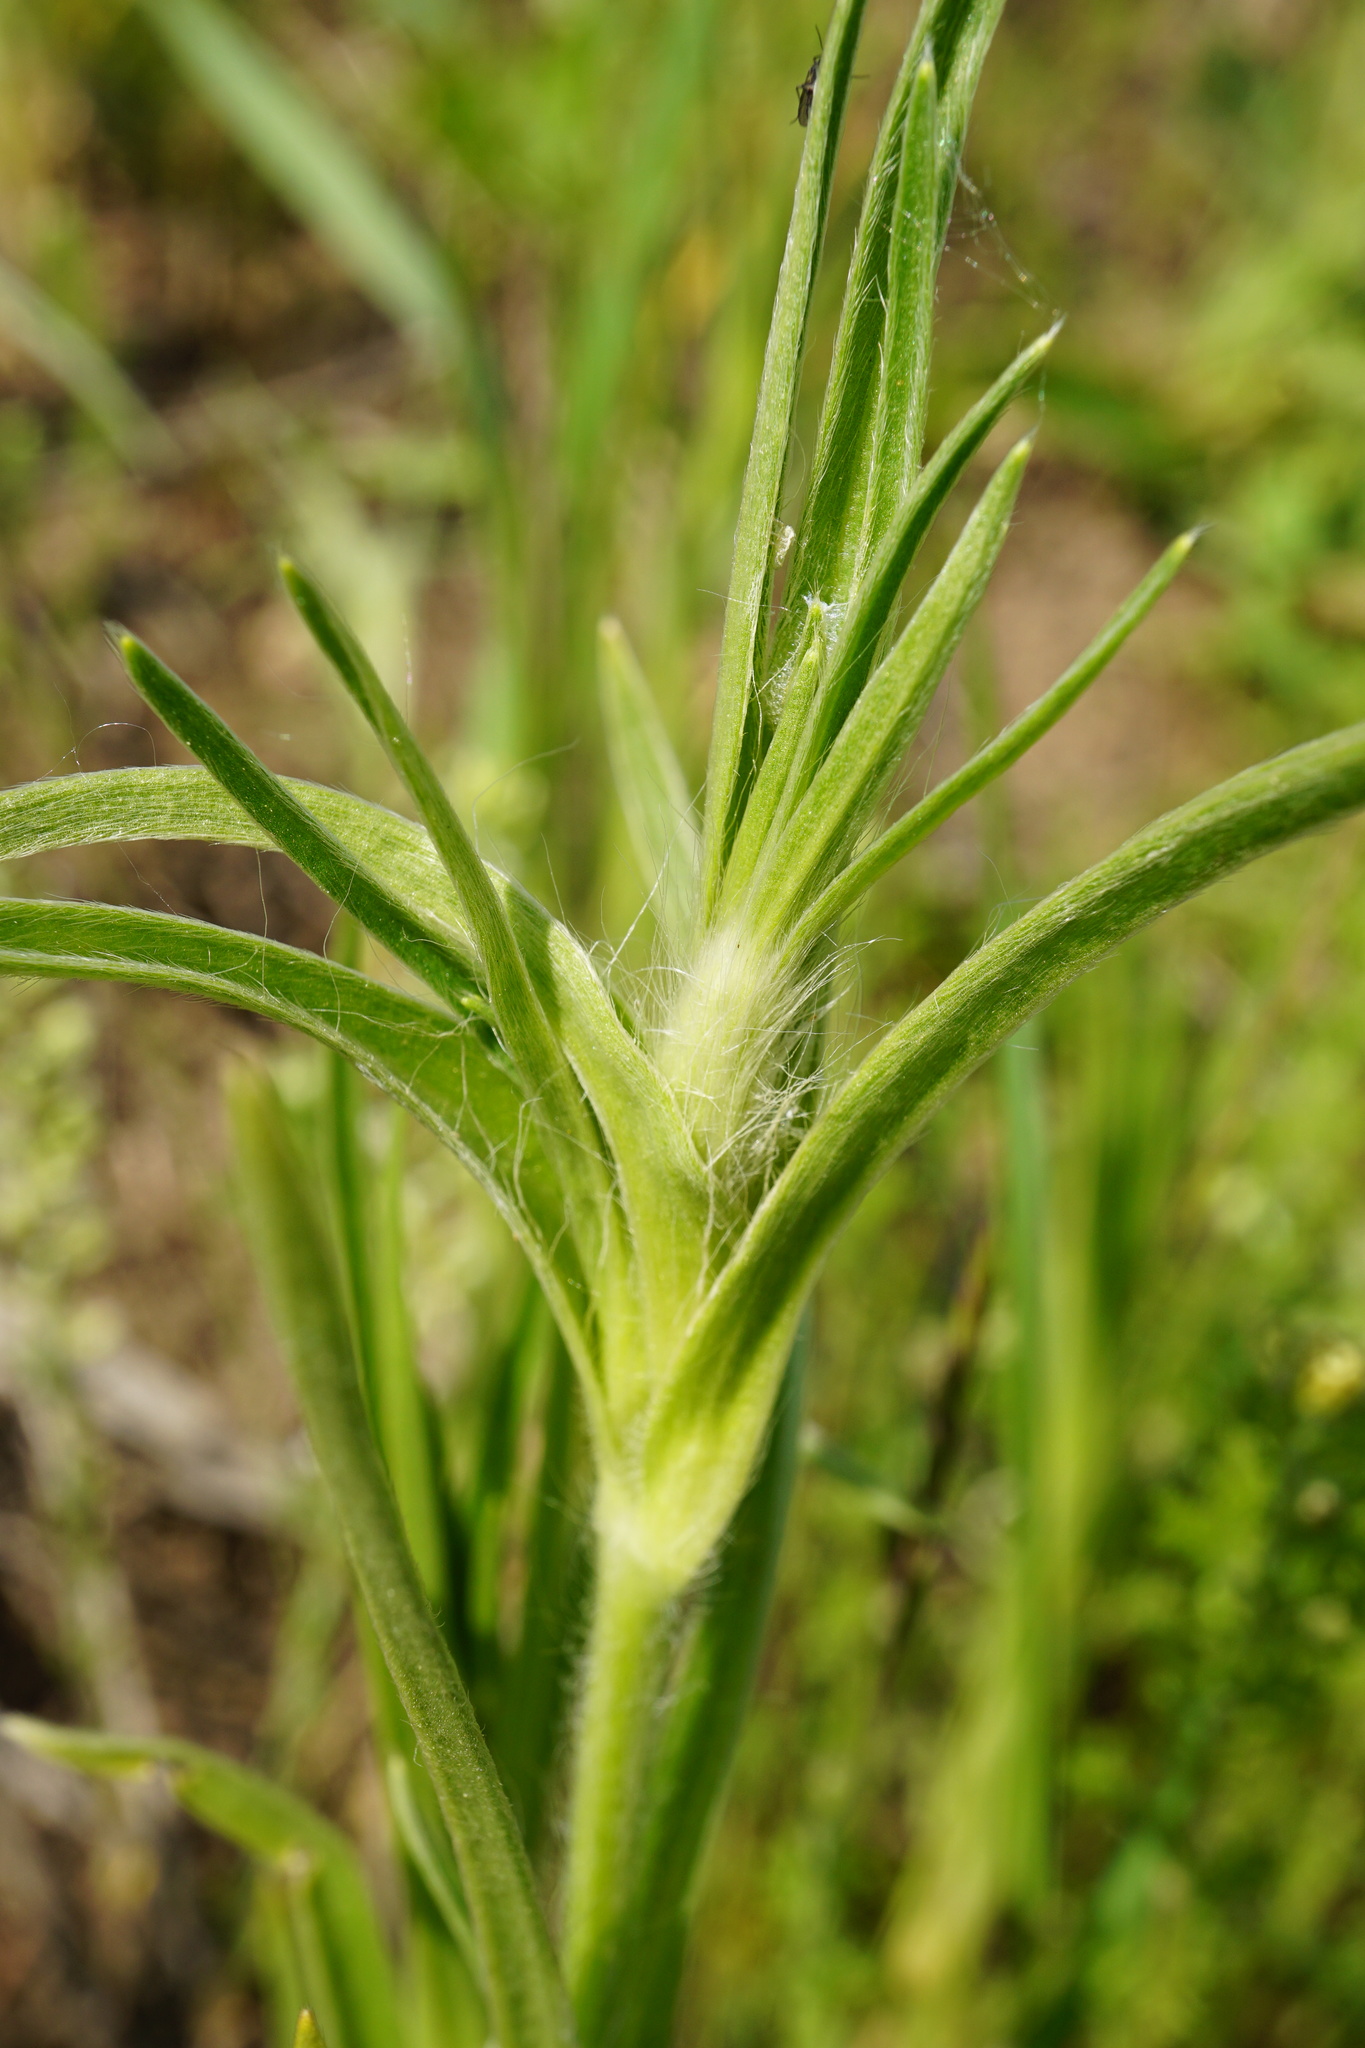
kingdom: Plantae
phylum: Tracheophyta
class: Magnoliopsida
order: Caryophyllales
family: Caryophyllaceae
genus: Agrostemma
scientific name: Agrostemma githago
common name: Common corncockle
